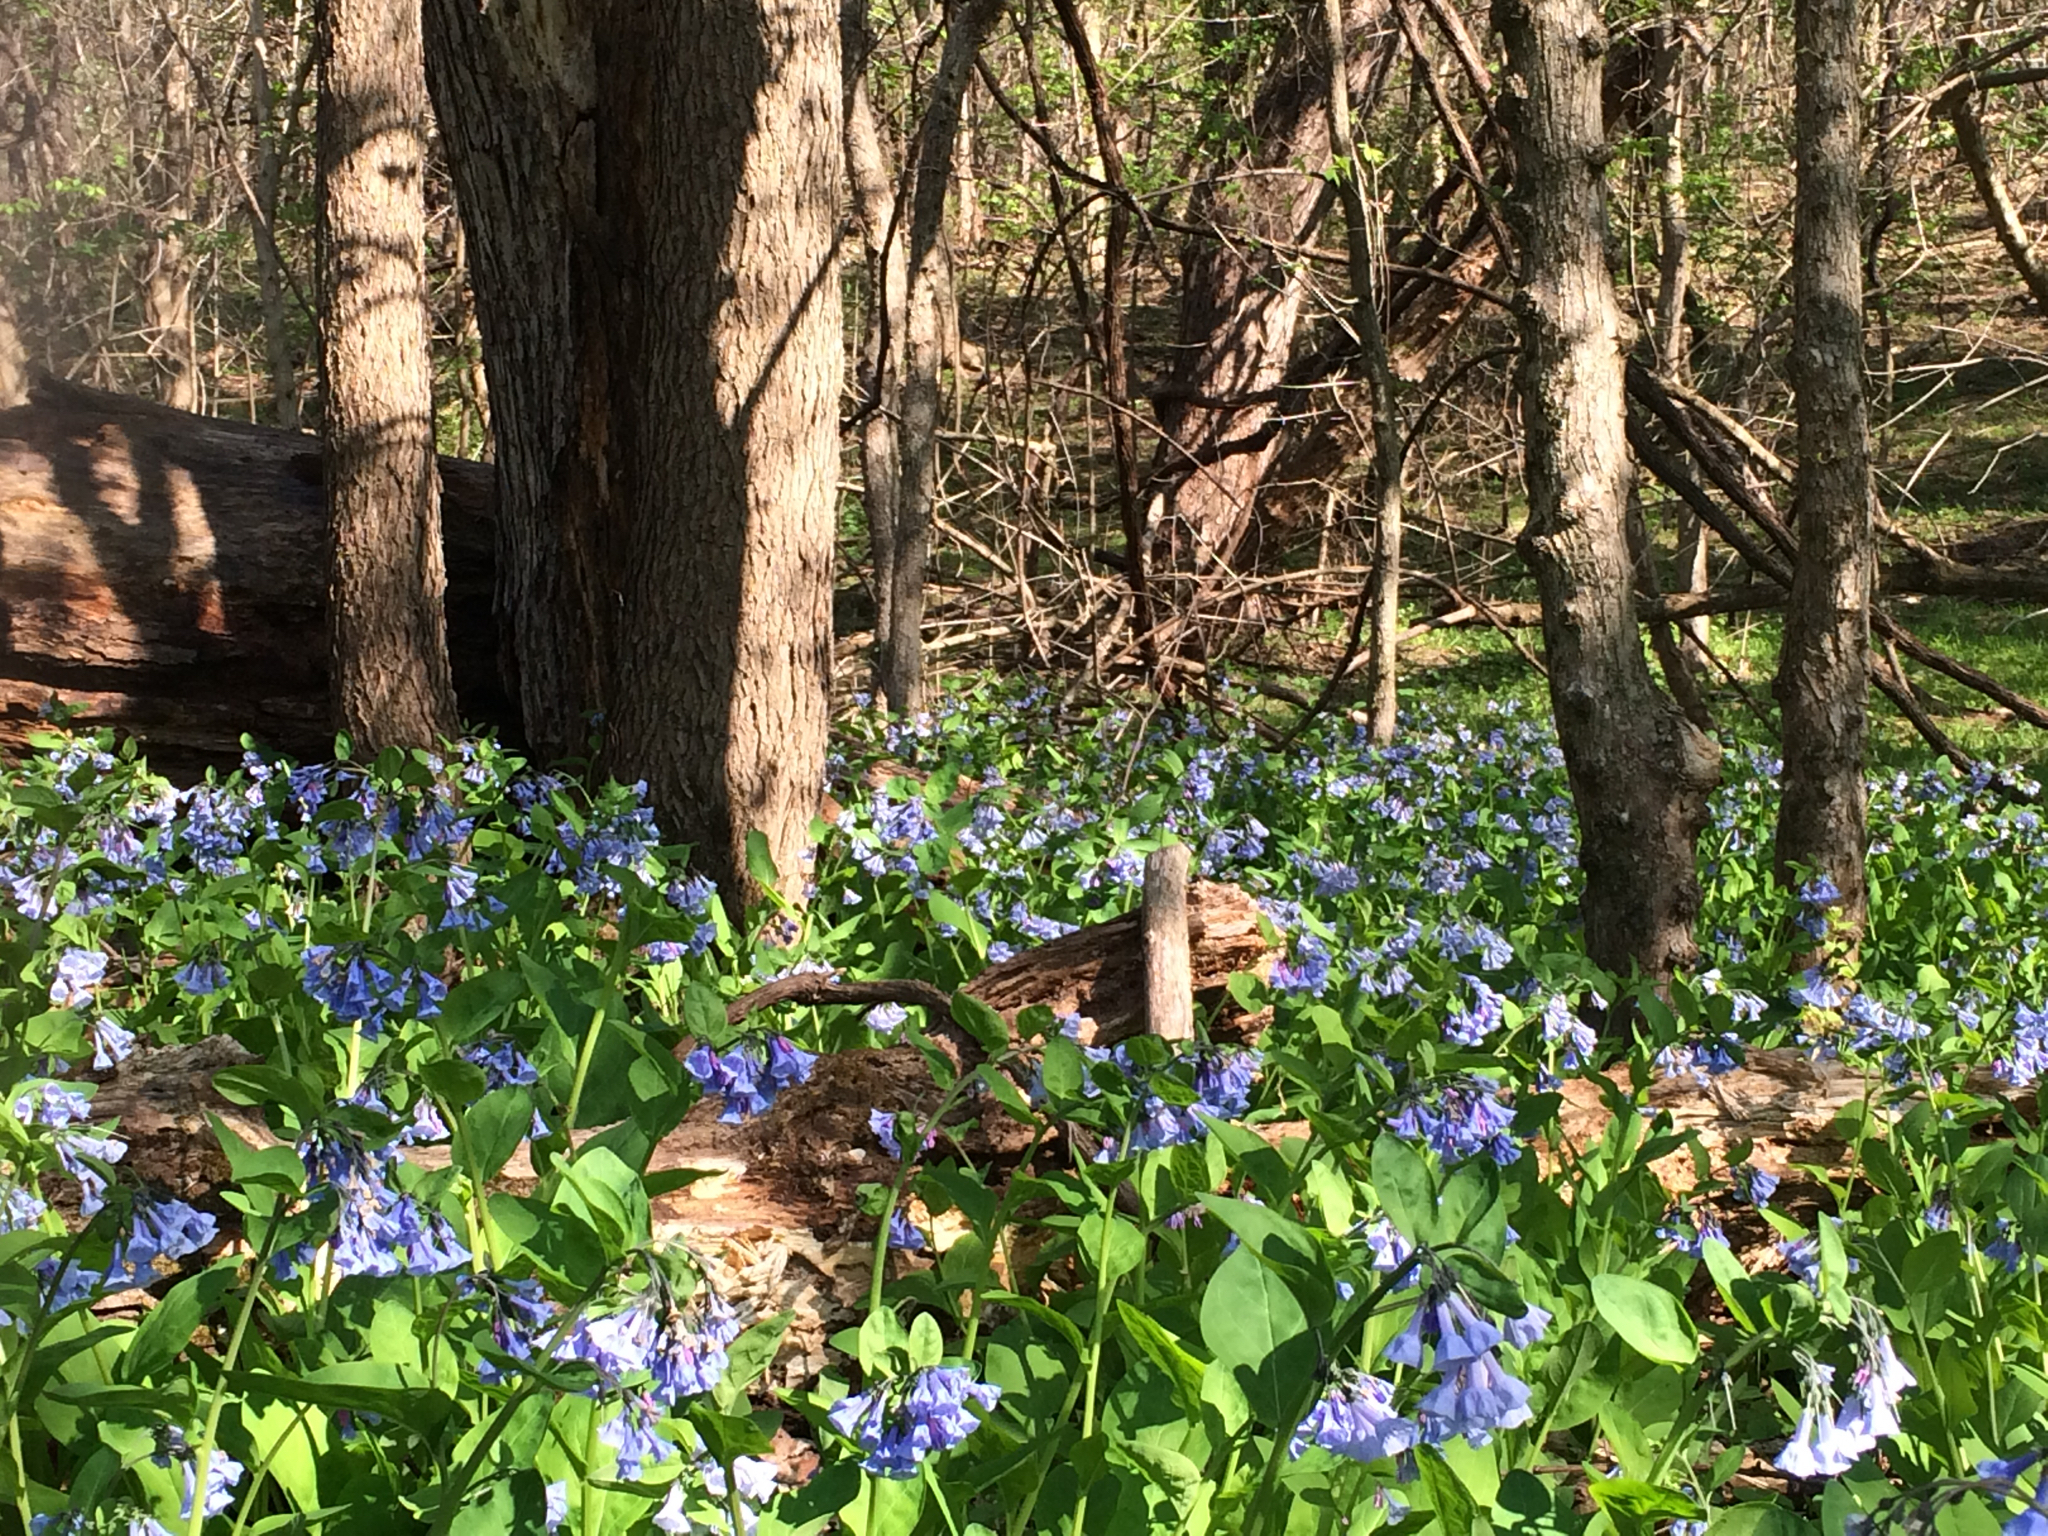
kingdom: Plantae
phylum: Tracheophyta
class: Magnoliopsida
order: Boraginales
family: Boraginaceae
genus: Mertensia
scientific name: Mertensia virginica
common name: Virginia bluebells
